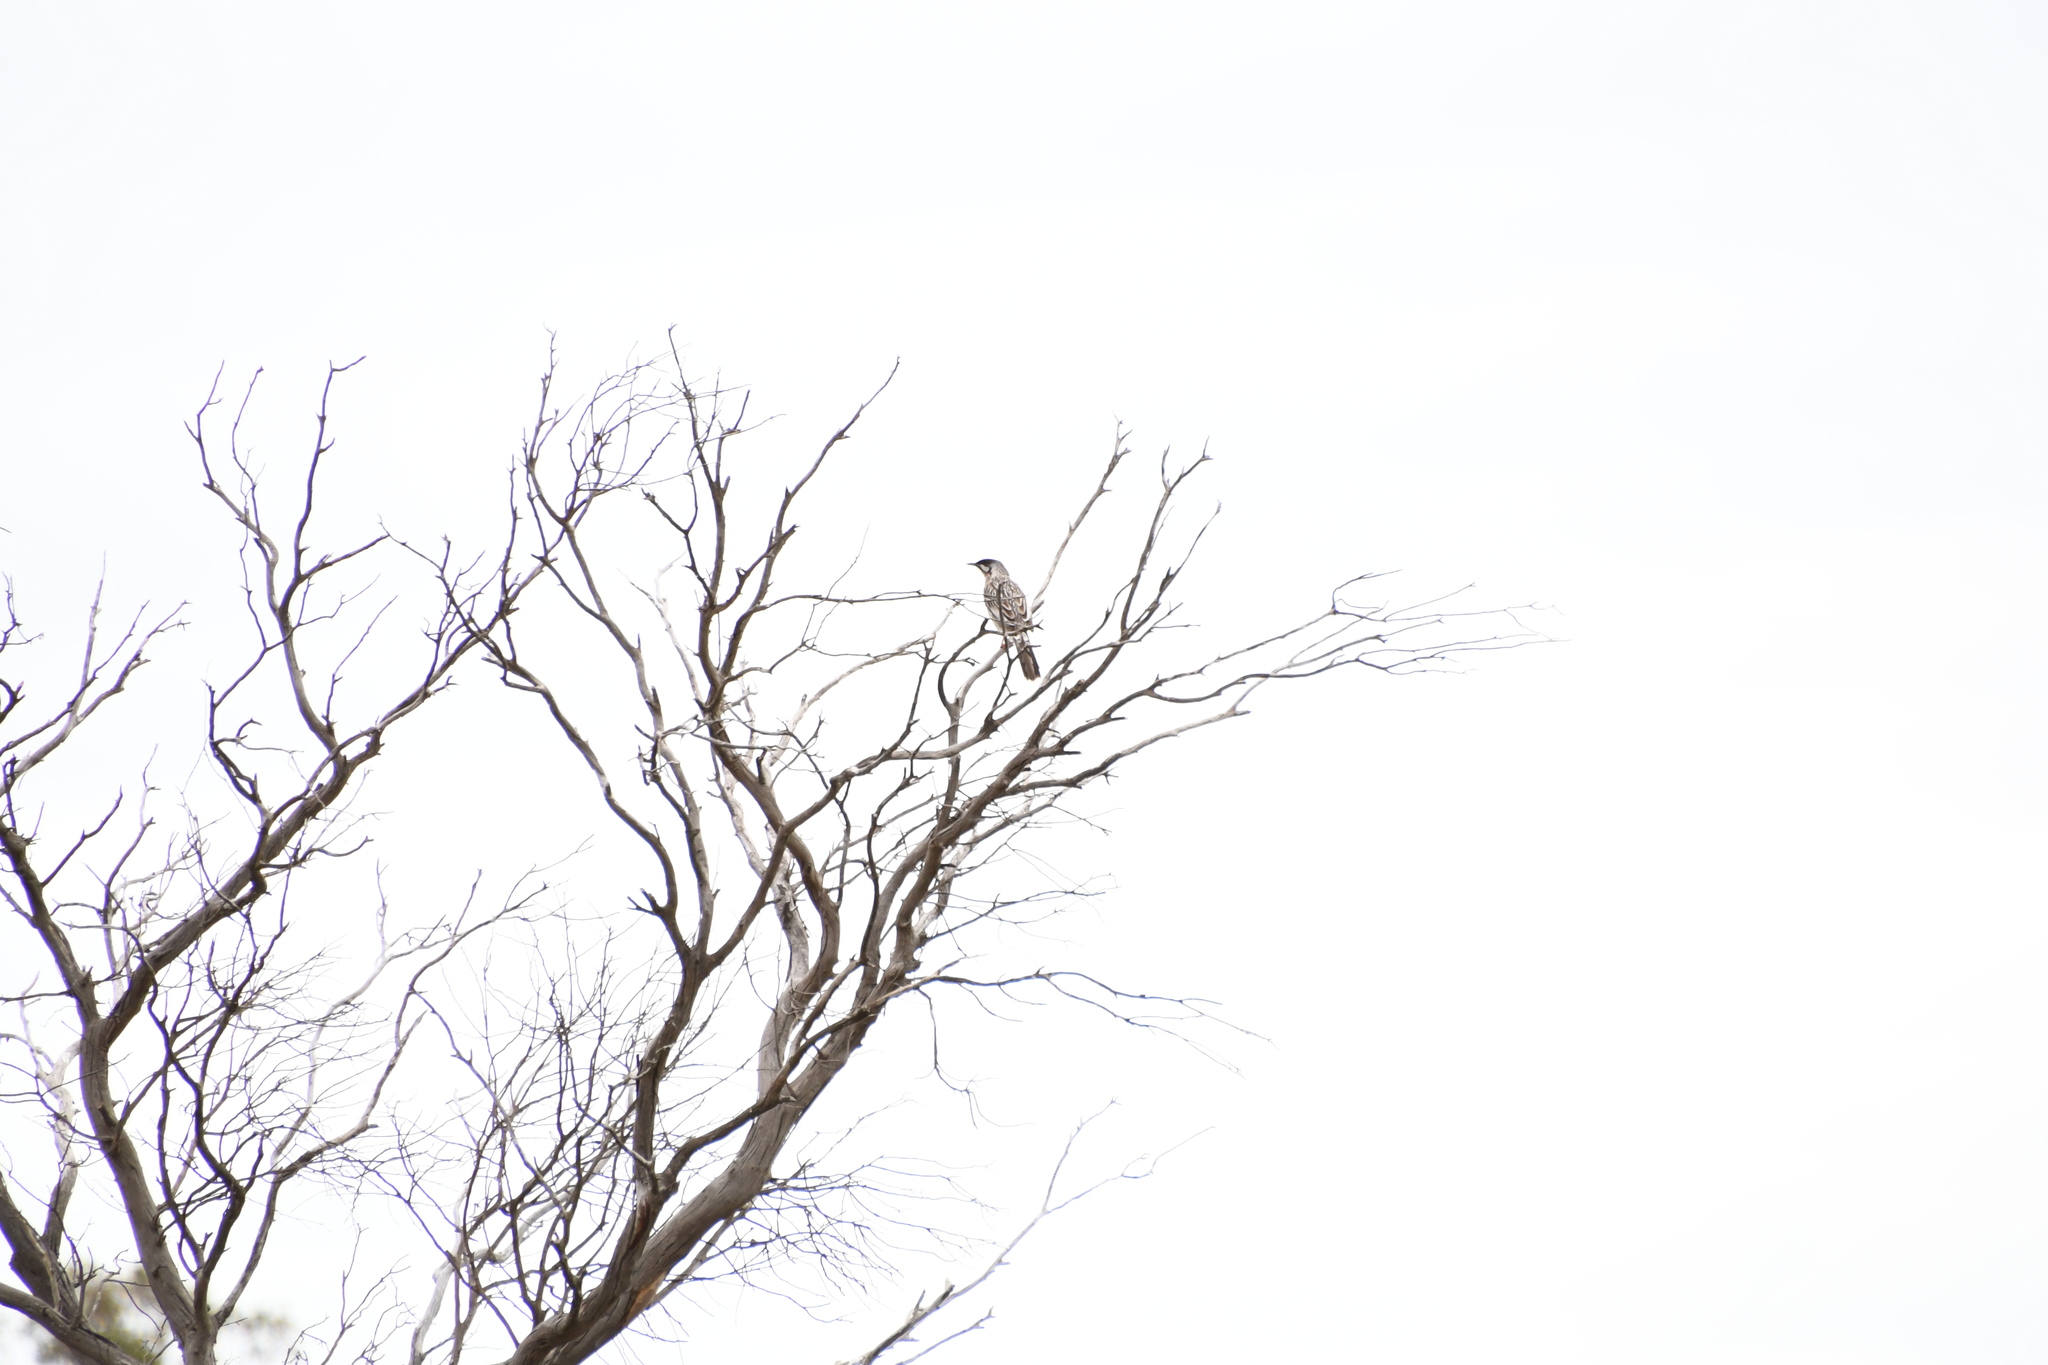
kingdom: Animalia
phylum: Chordata
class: Aves
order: Passeriformes
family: Meliphagidae
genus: Anthochaera
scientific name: Anthochaera carunculata
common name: Red wattlebird
